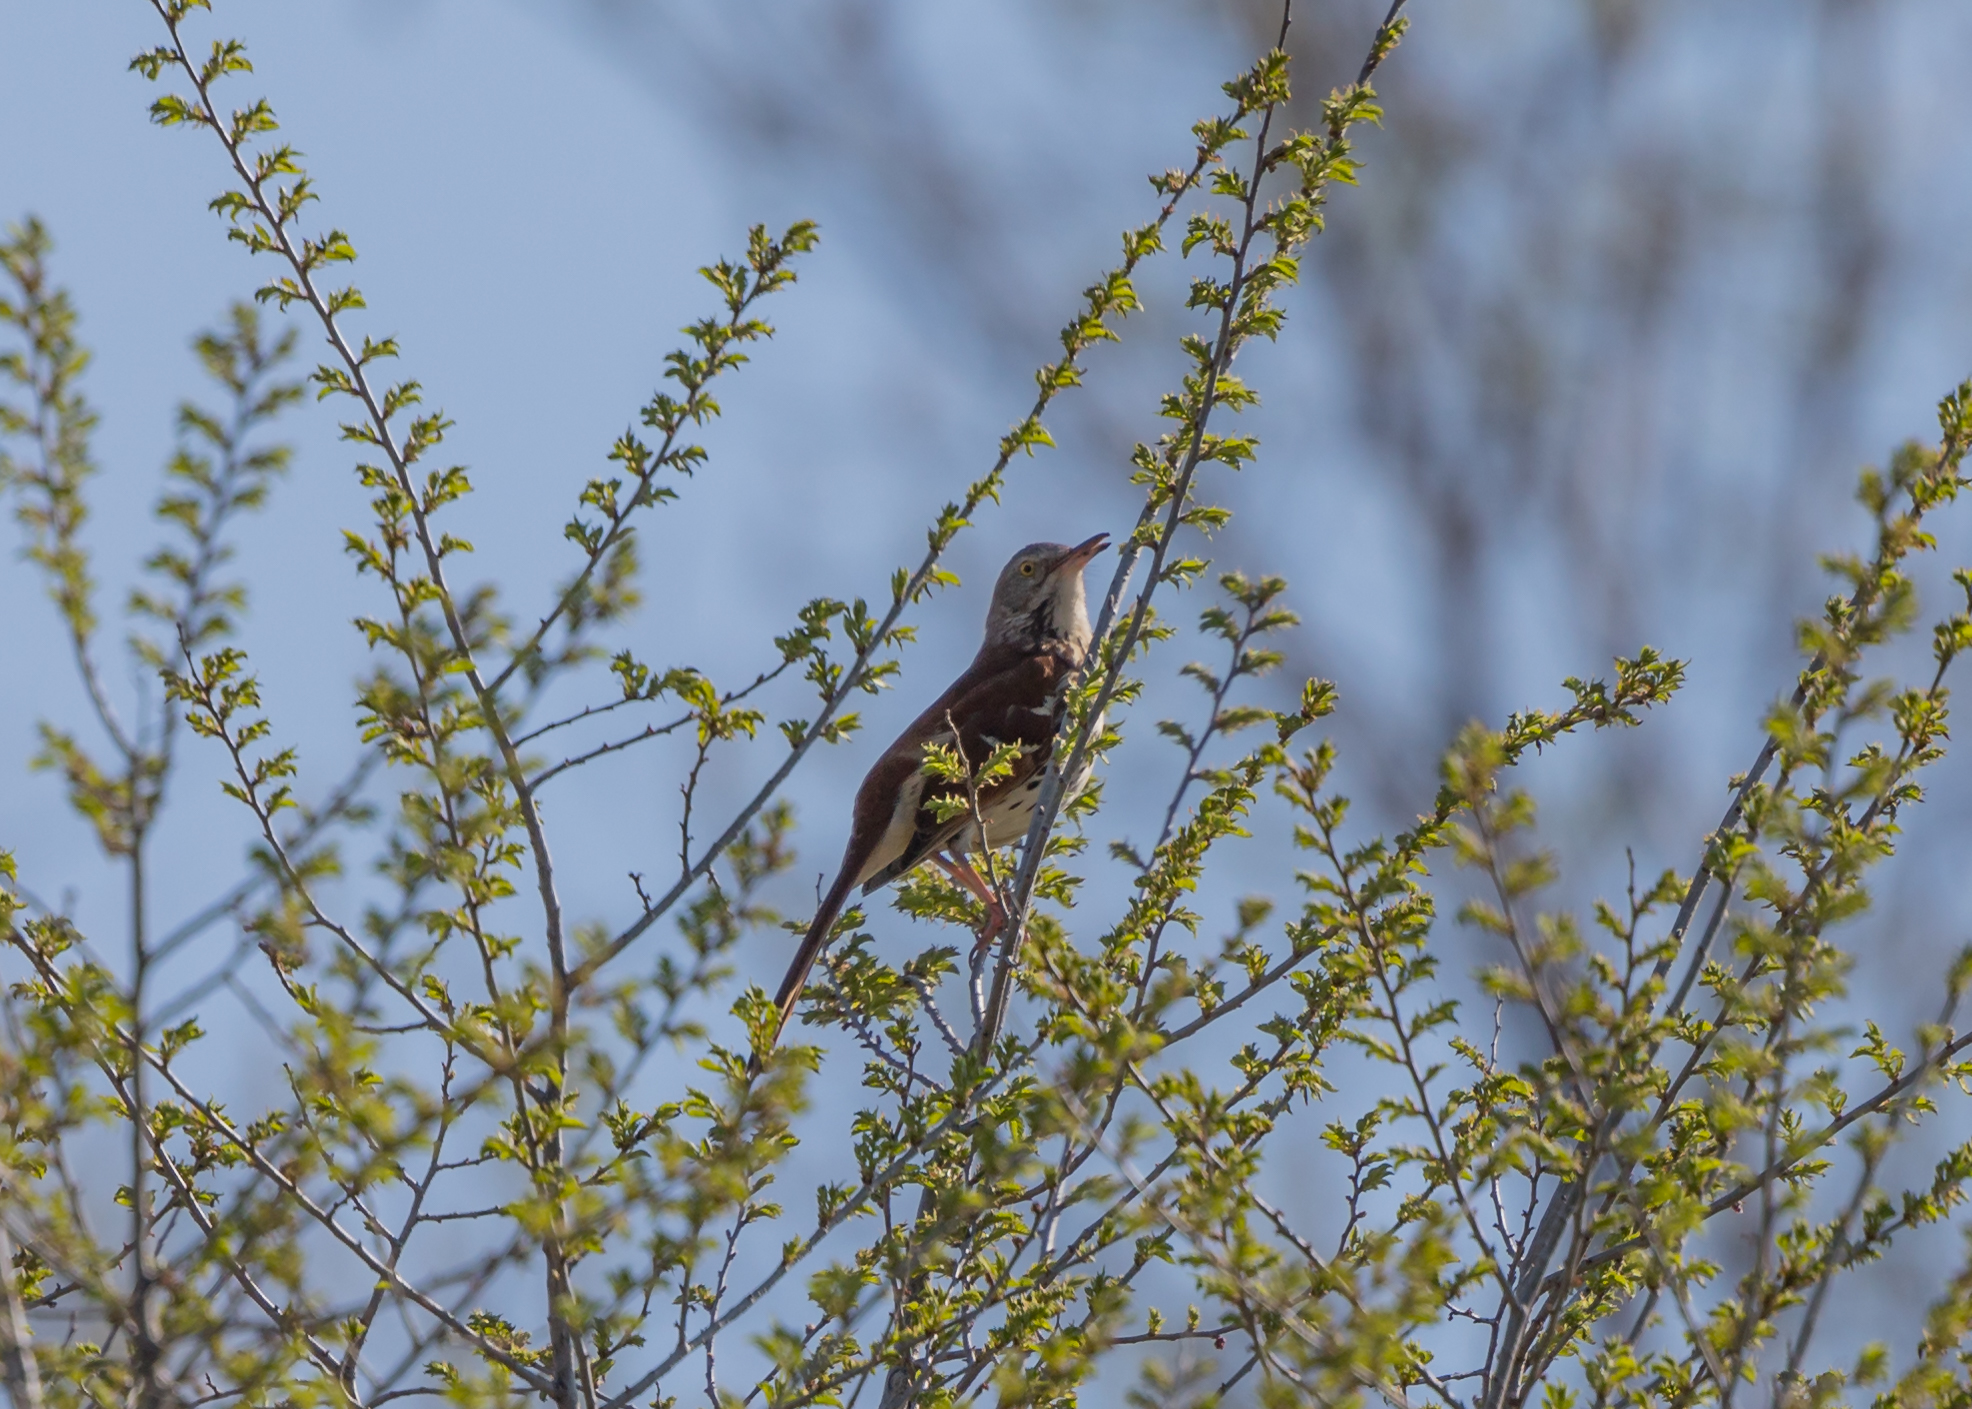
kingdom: Animalia
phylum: Chordata
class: Aves
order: Passeriformes
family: Mimidae
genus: Toxostoma
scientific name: Toxostoma rufum
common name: Brown thrasher
